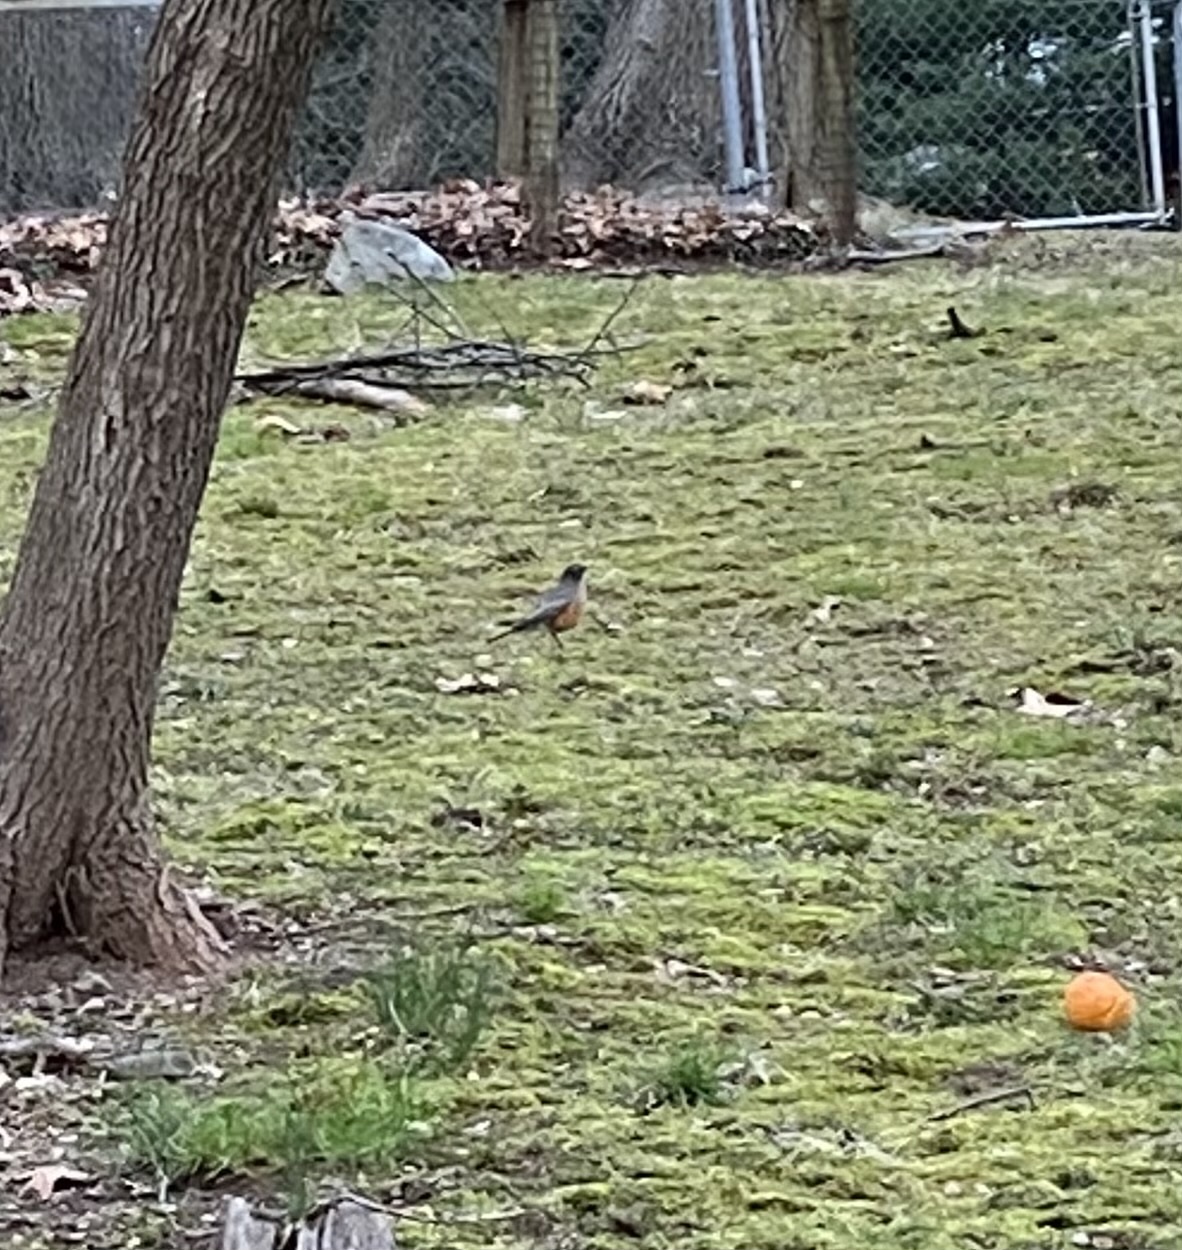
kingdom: Animalia
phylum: Chordata
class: Aves
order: Passeriformes
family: Turdidae
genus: Turdus
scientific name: Turdus migratorius
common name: American robin
